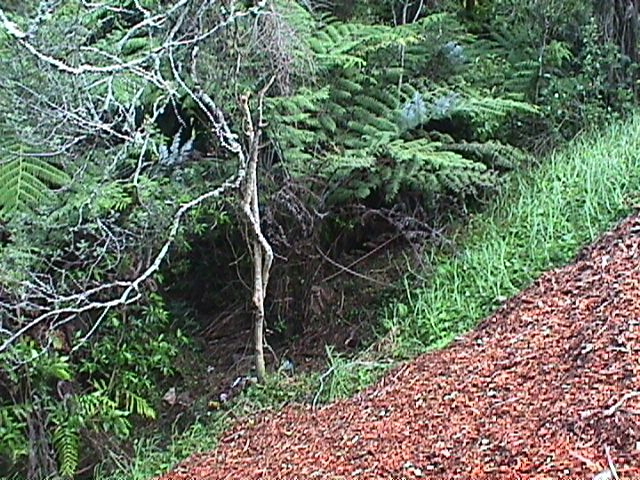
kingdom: Plantae
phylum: Tracheophyta
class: Liliopsida
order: Poales
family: Poaceae
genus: Cenchrus
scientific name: Cenchrus clandestinus
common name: Kikuyugrass
